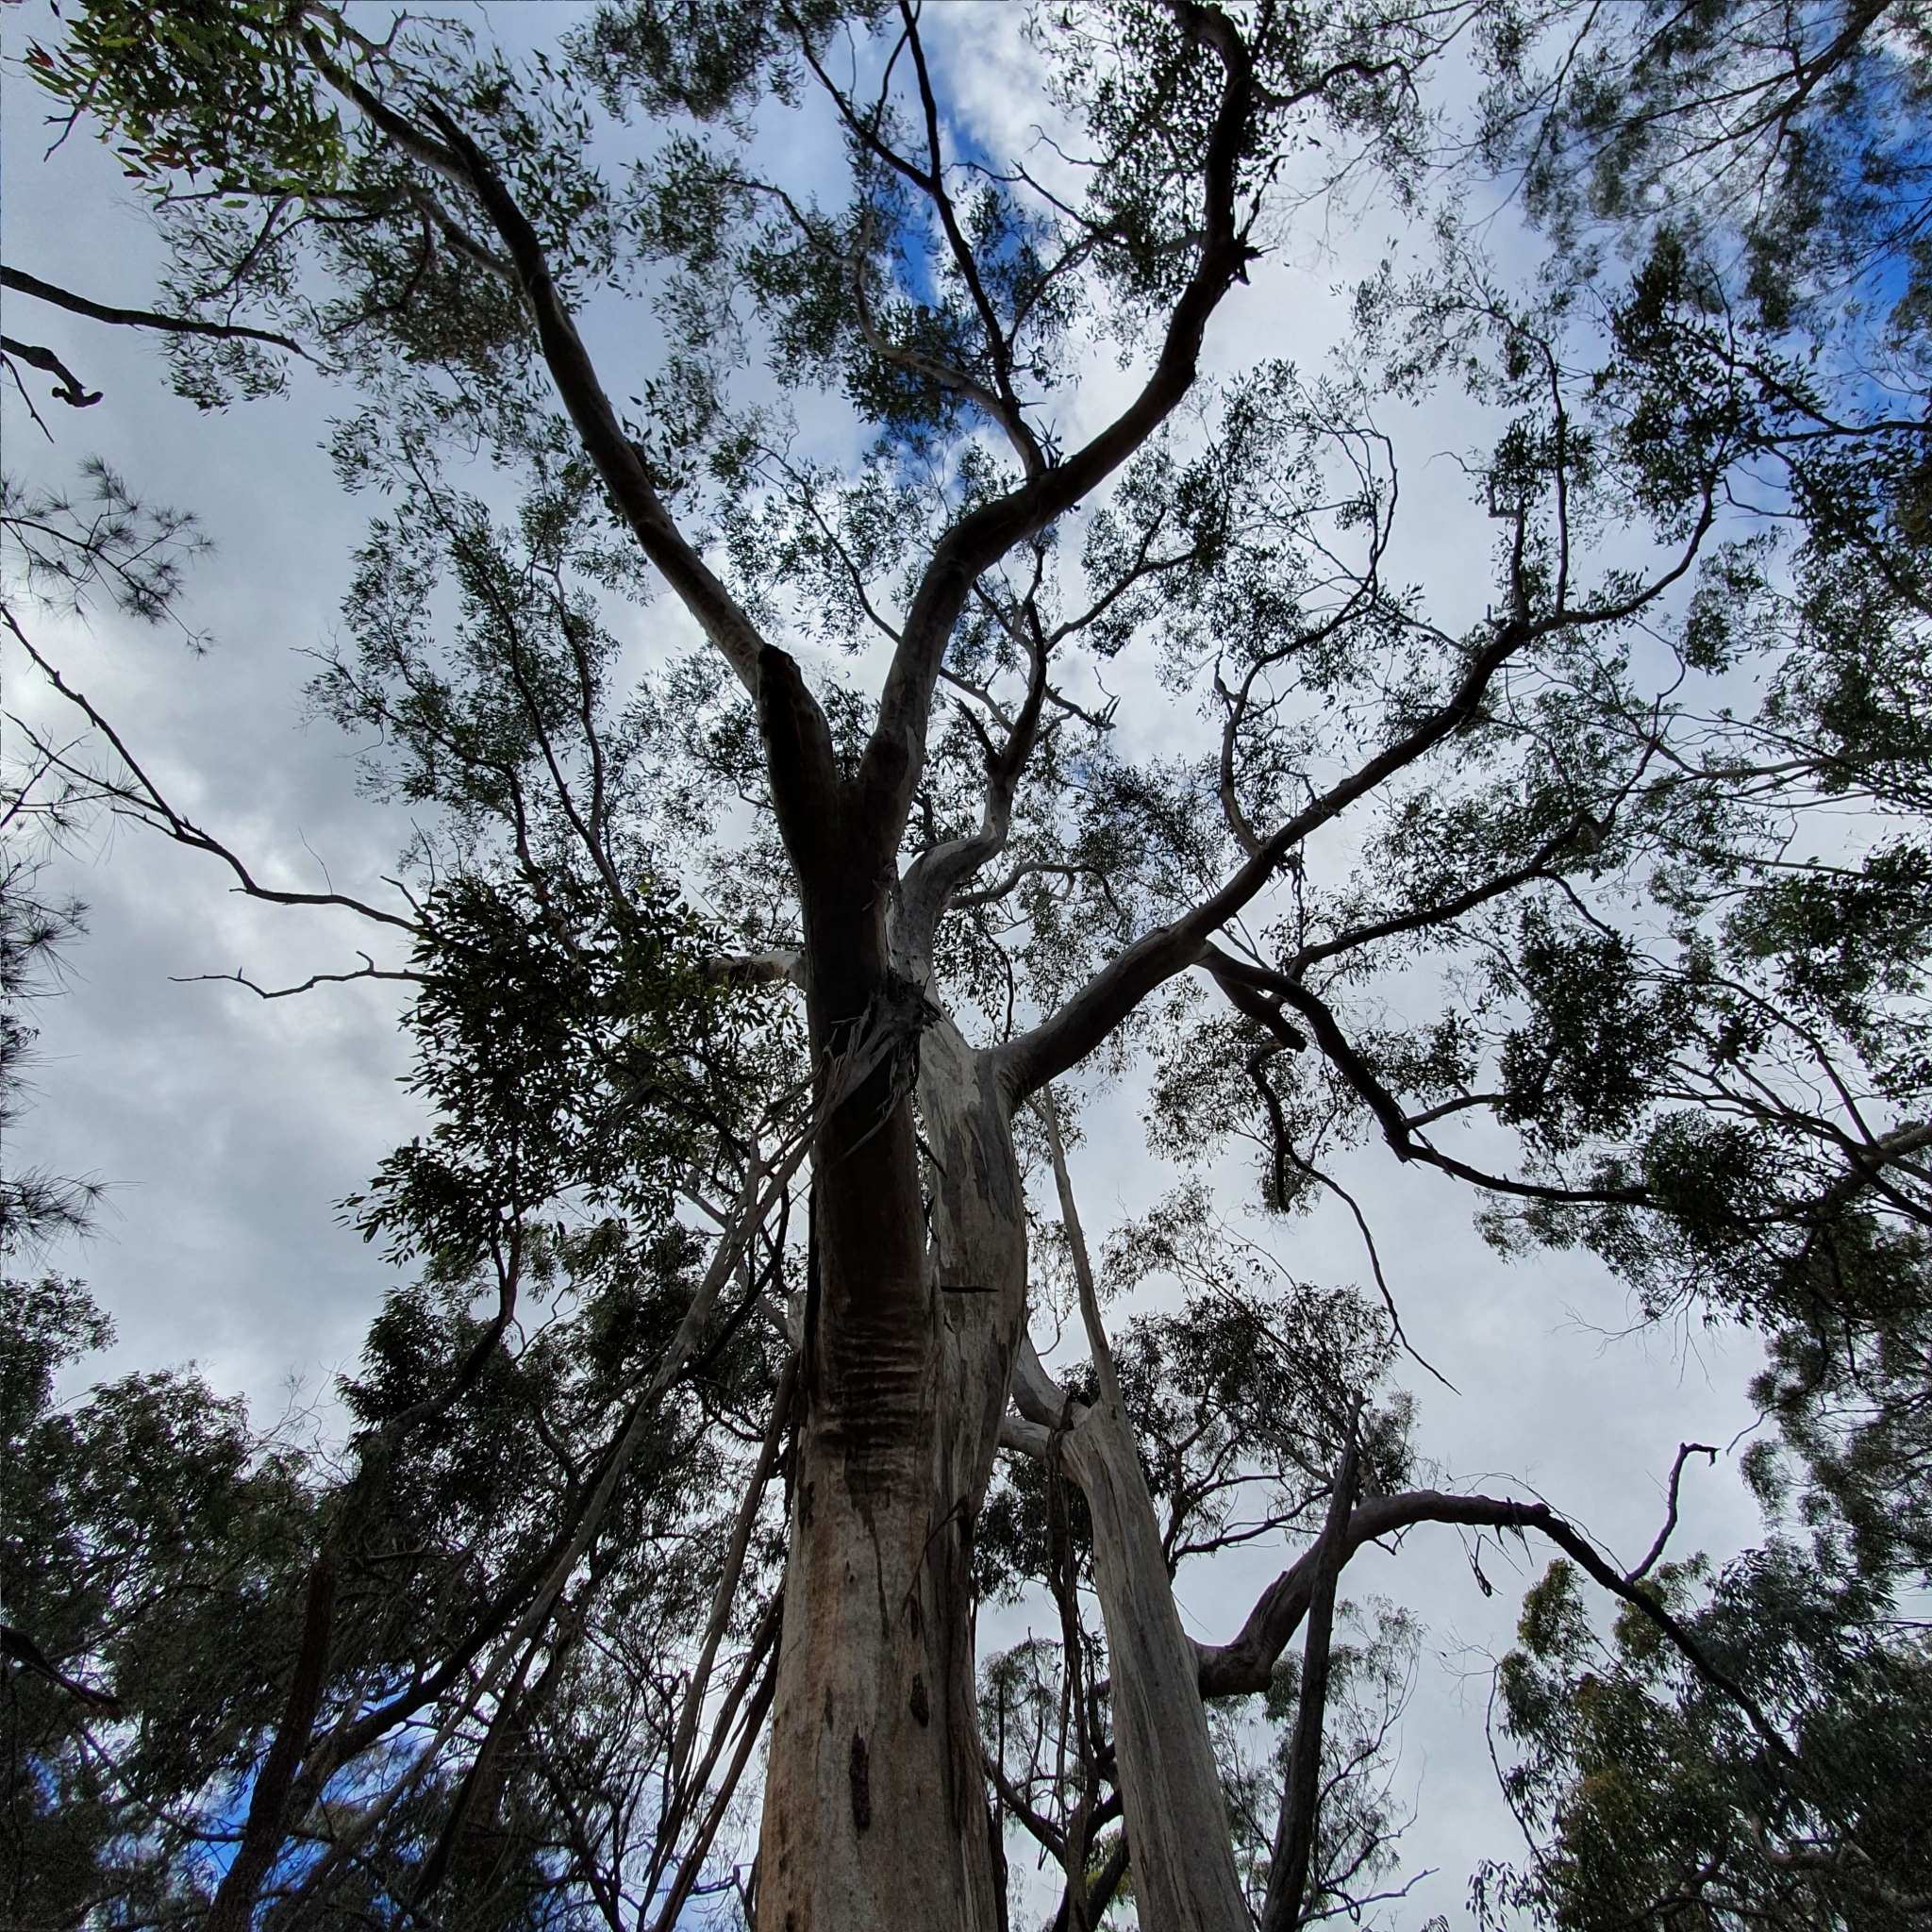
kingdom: Plantae
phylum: Tracheophyta
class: Magnoliopsida
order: Myrtales
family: Myrtaceae
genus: Eucalyptus
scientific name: Eucalyptus punctata
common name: Gray gum
